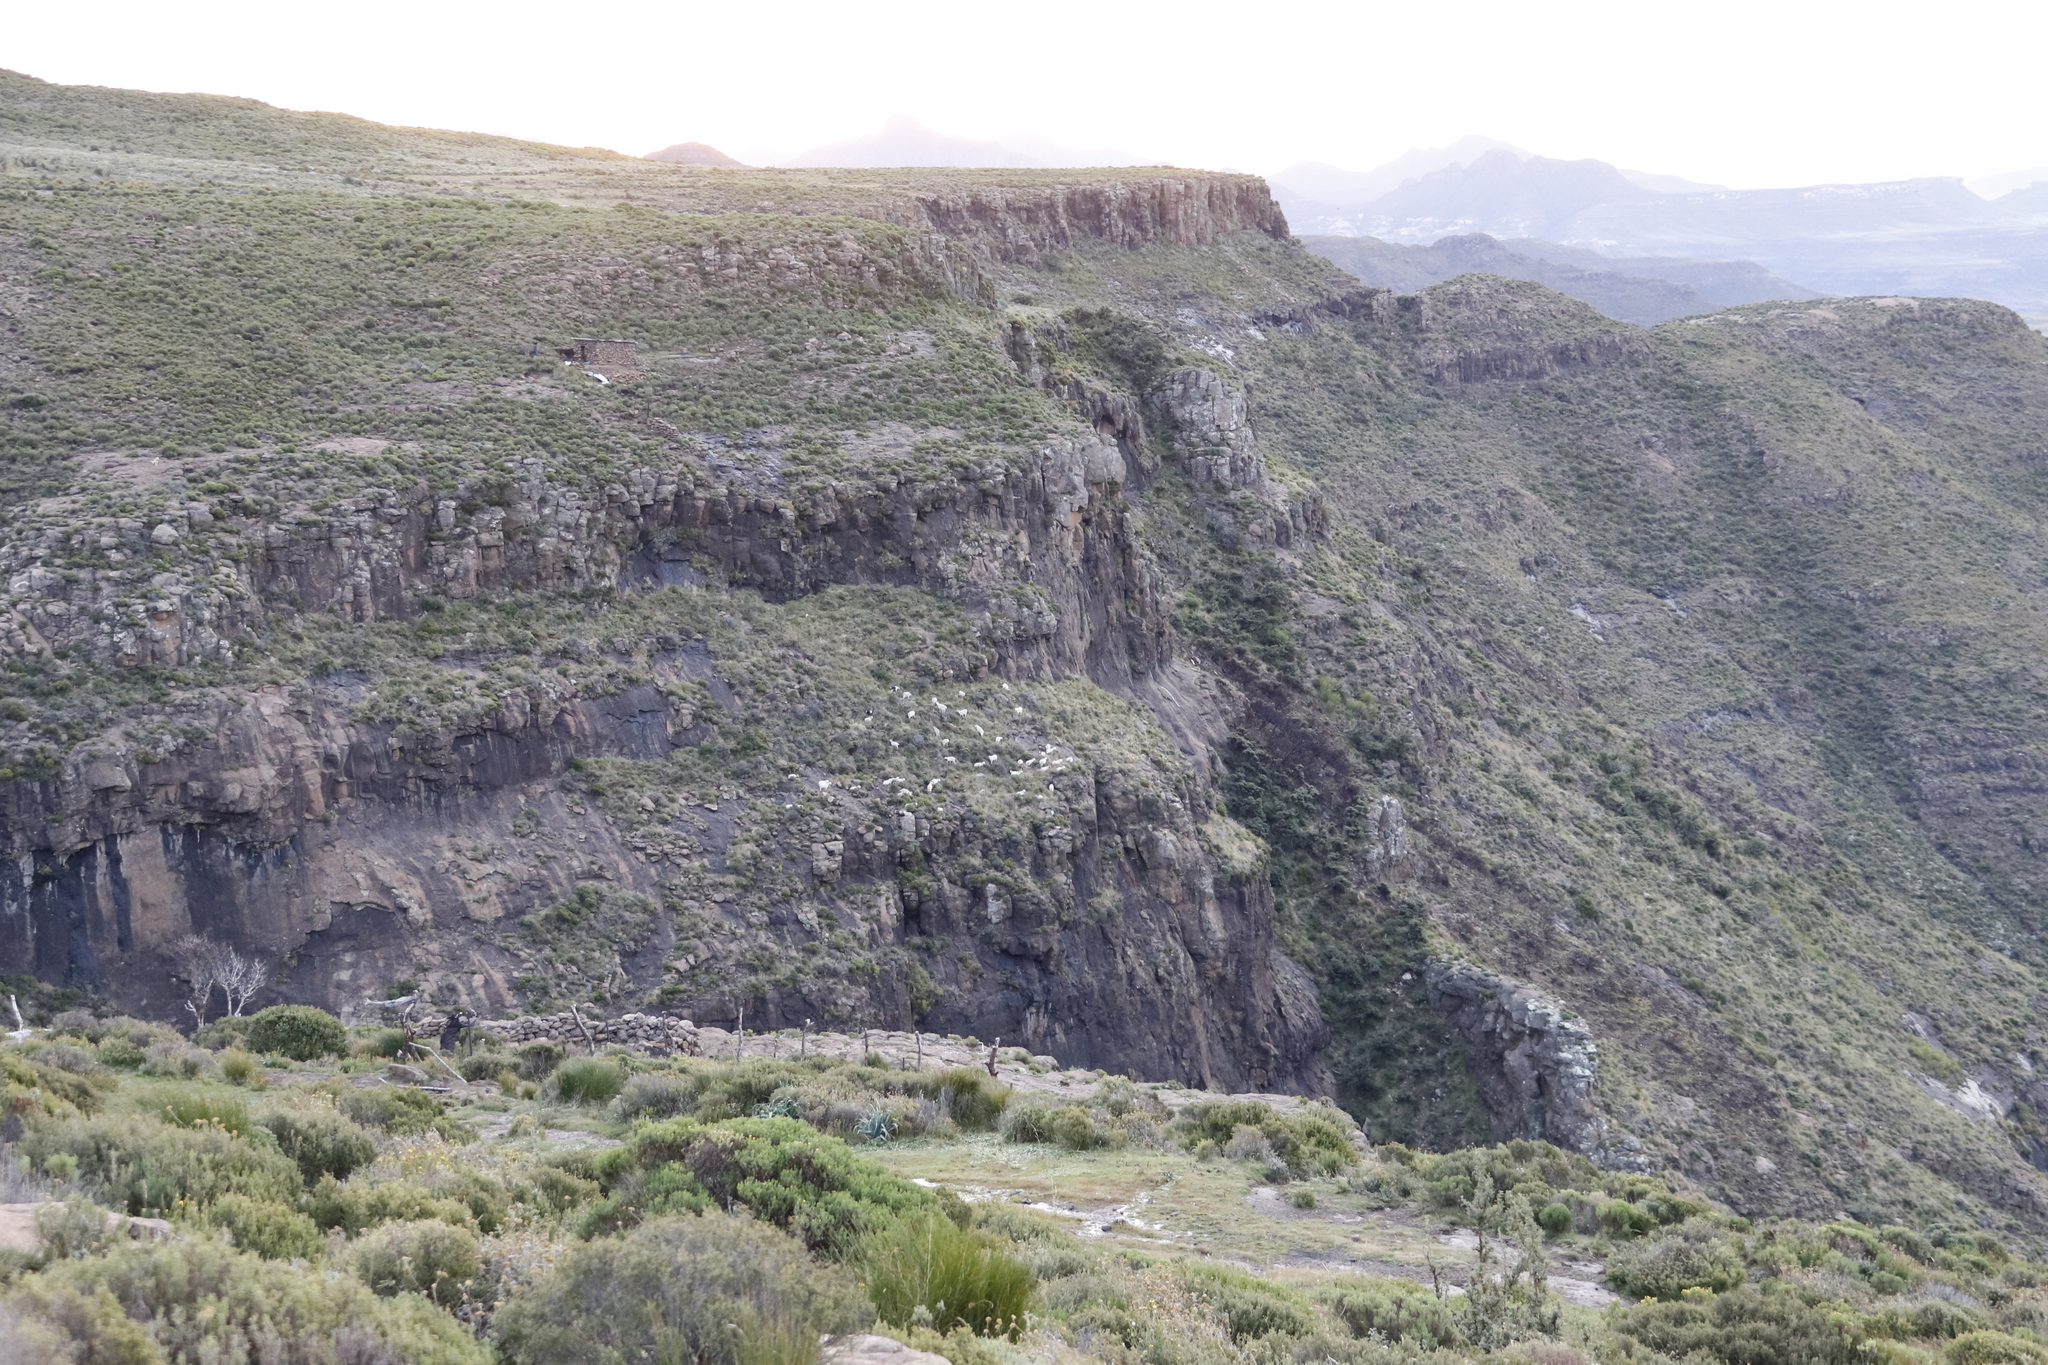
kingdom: Animalia
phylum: Chordata
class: Mammalia
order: Artiodactyla
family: Bovidae
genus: Capra
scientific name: Capra hircus
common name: Domestic goat
